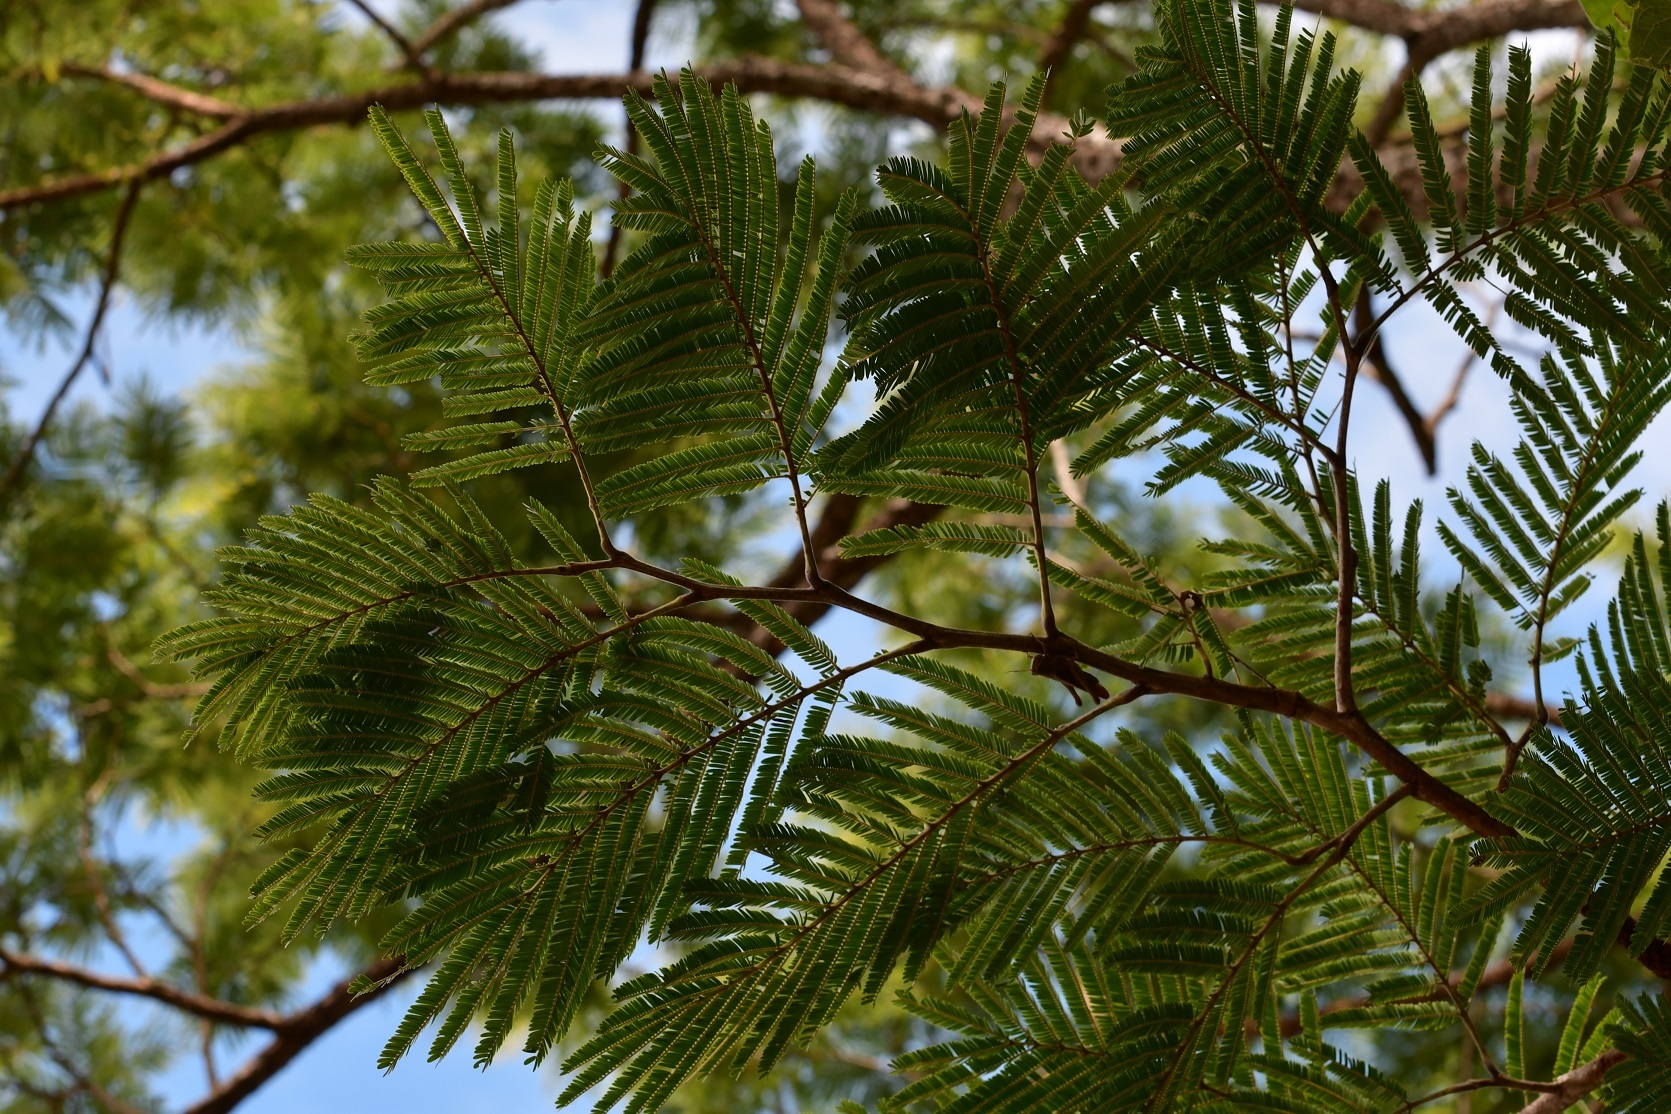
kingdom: Plantae
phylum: Tracheophyta
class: Magnoliopsida
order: Fabales
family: Fabaceae
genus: Lysiloma
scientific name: Lysiloma auritum
